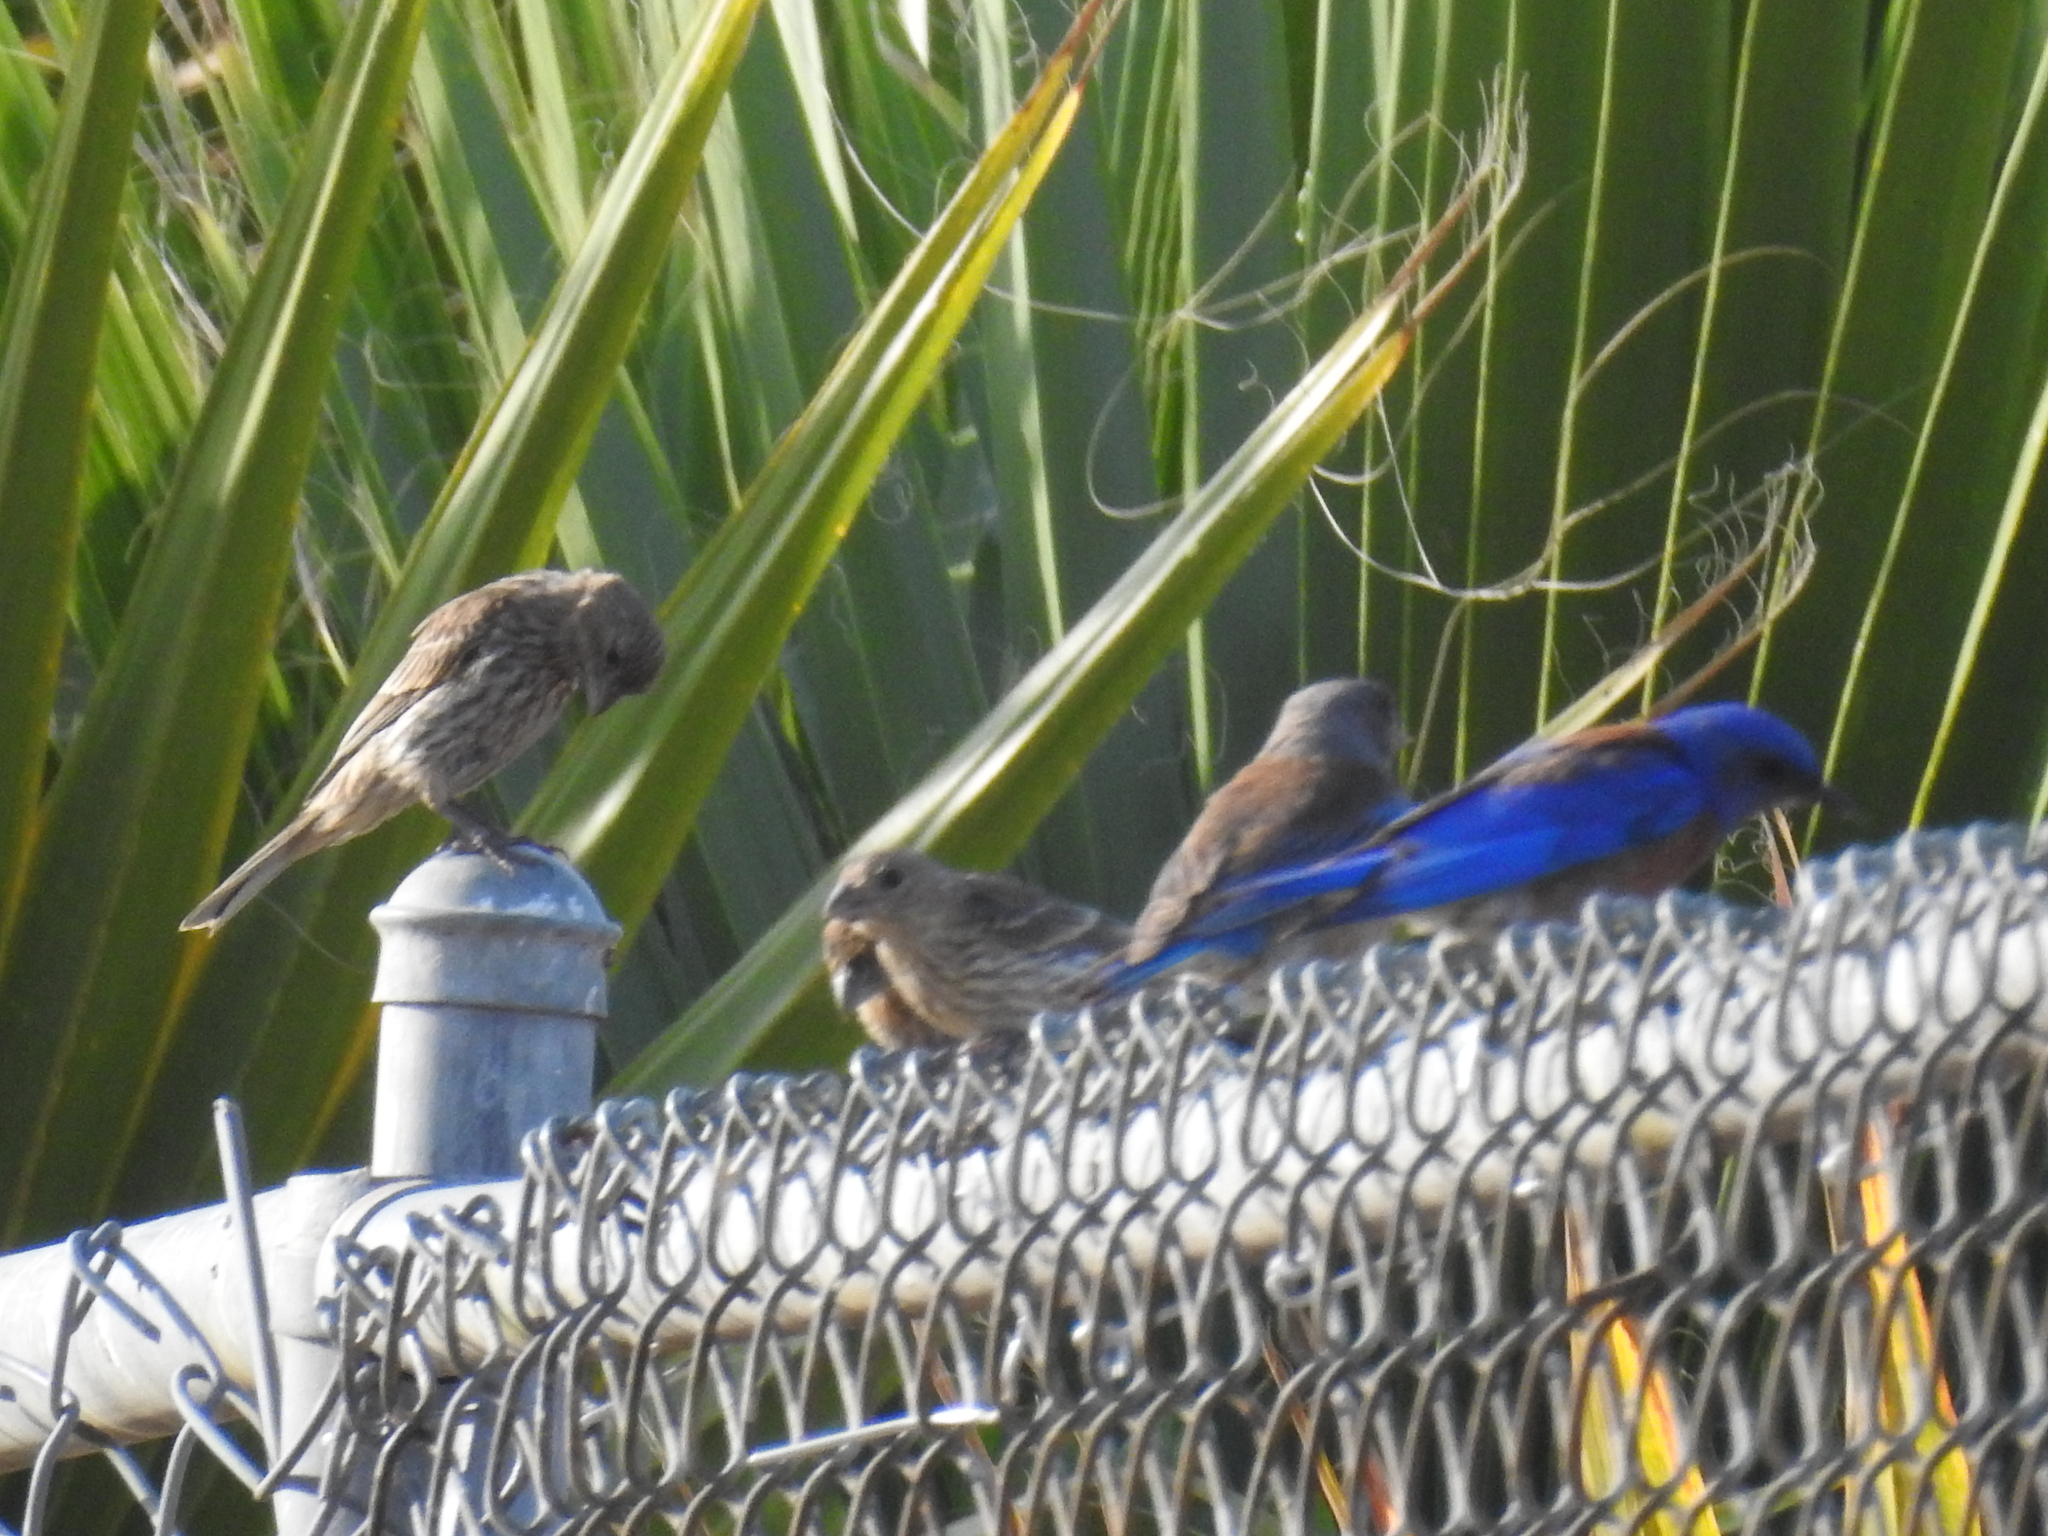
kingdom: Animalia
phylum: Chordata
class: Aves
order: Passeriformes
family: Fringillidae
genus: Haemorhous
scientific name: Haemorhous mexicanus
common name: House finch
